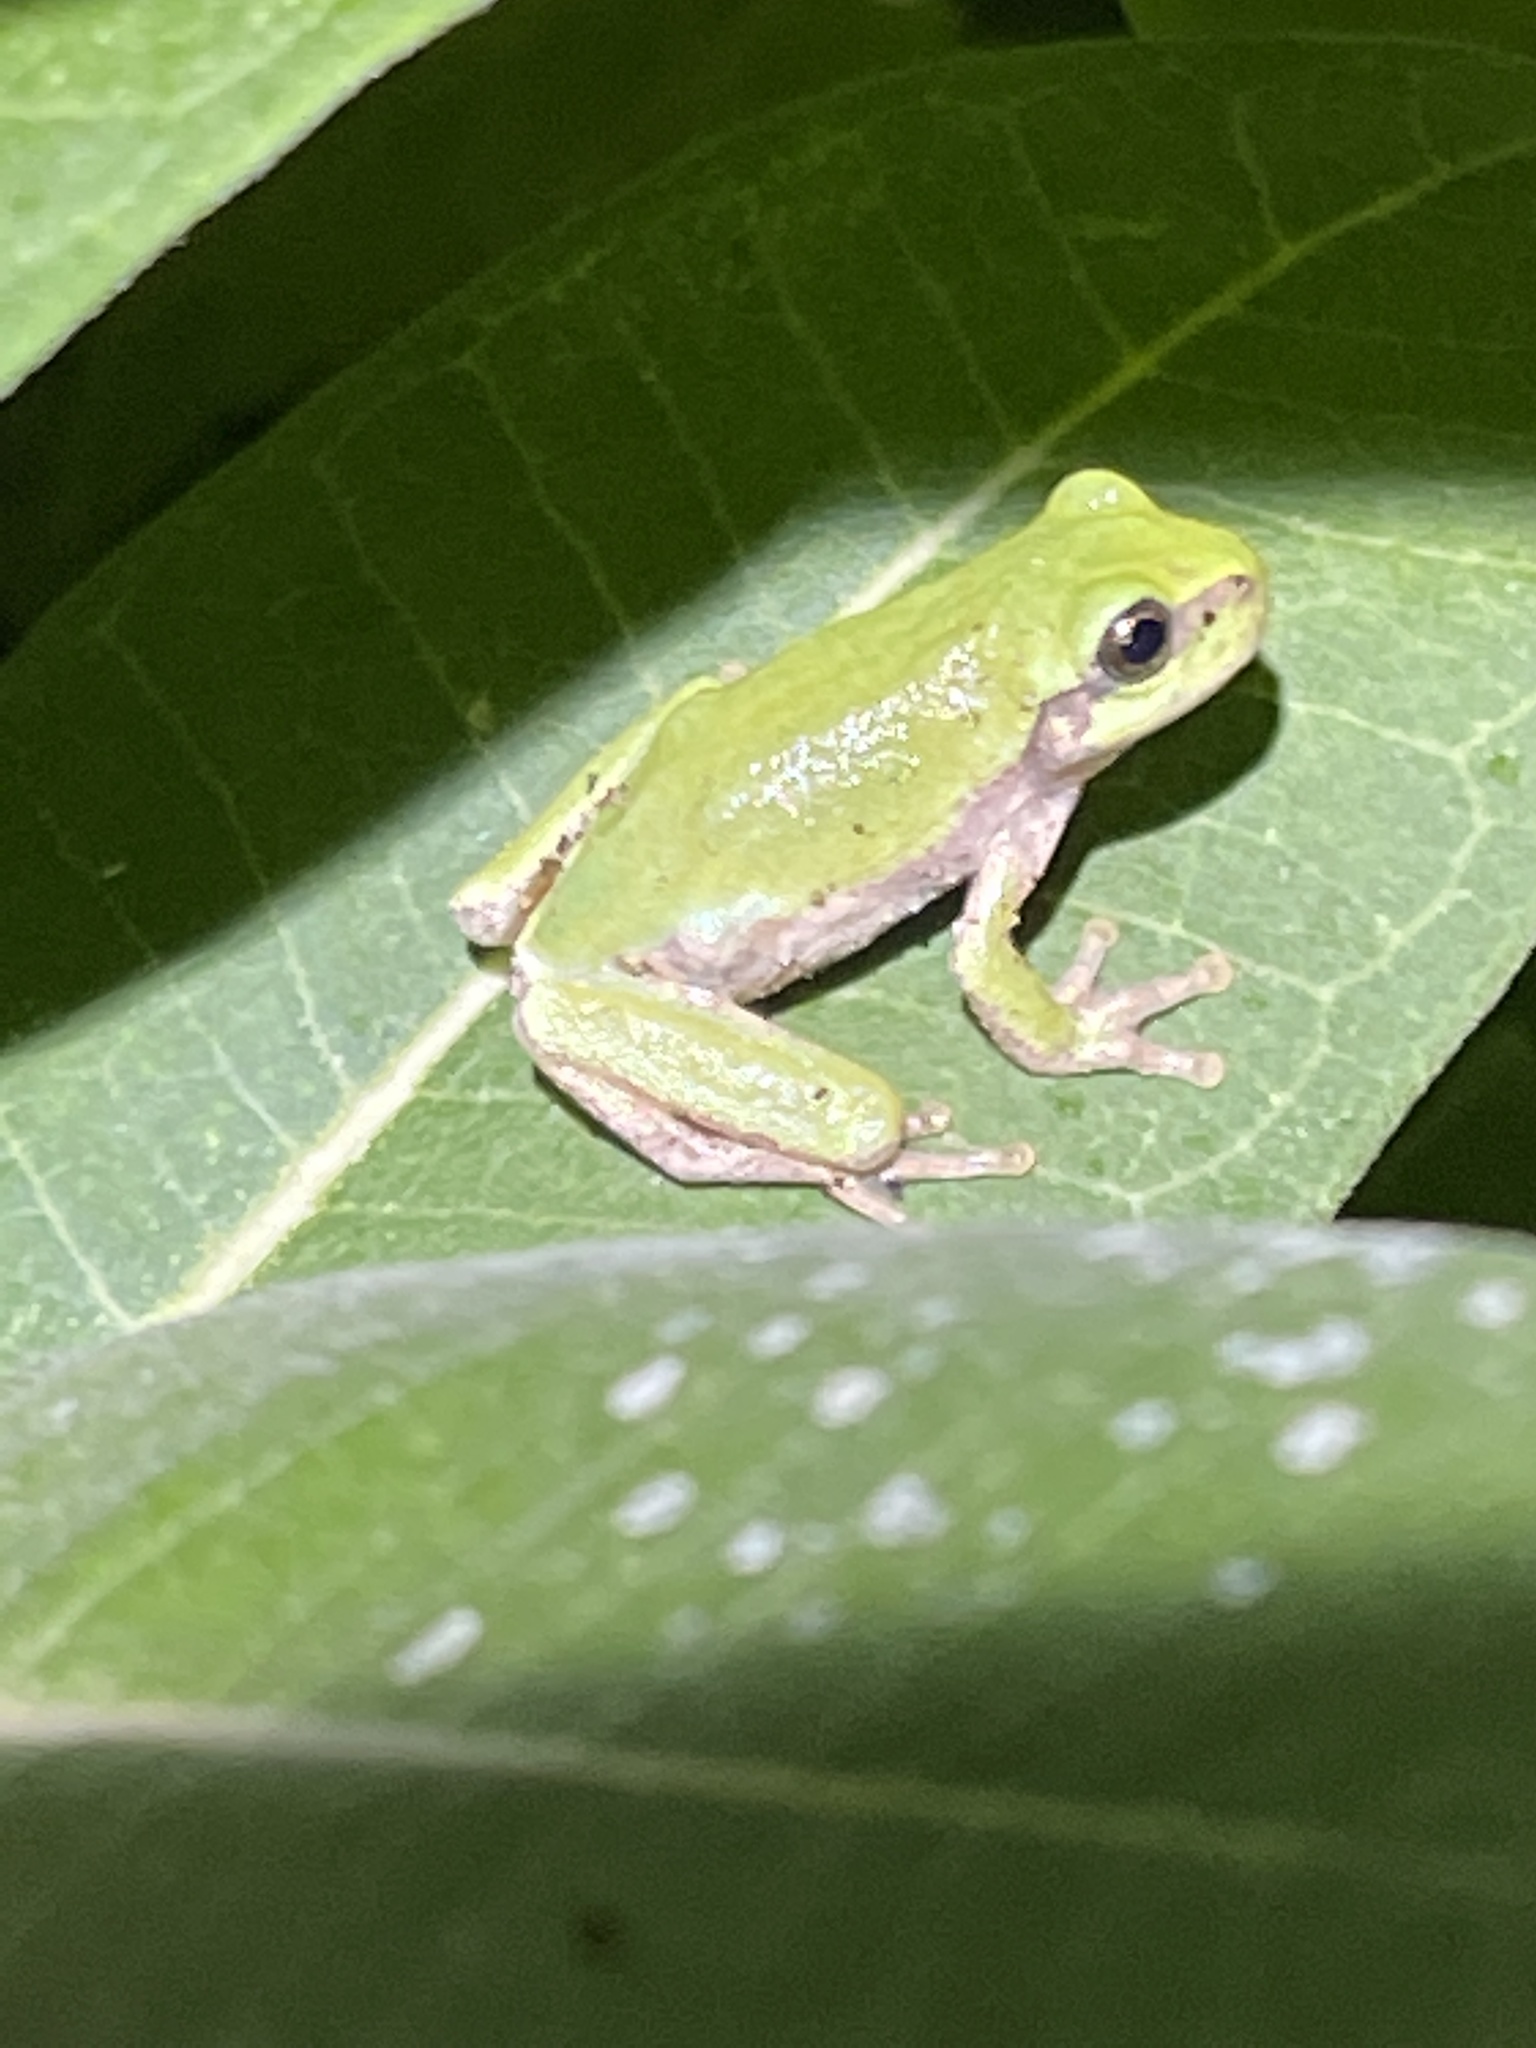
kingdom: Animalia
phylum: Chordata
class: Amphibia
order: Anura
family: Hylidae
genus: Hyla
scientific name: Hyla
